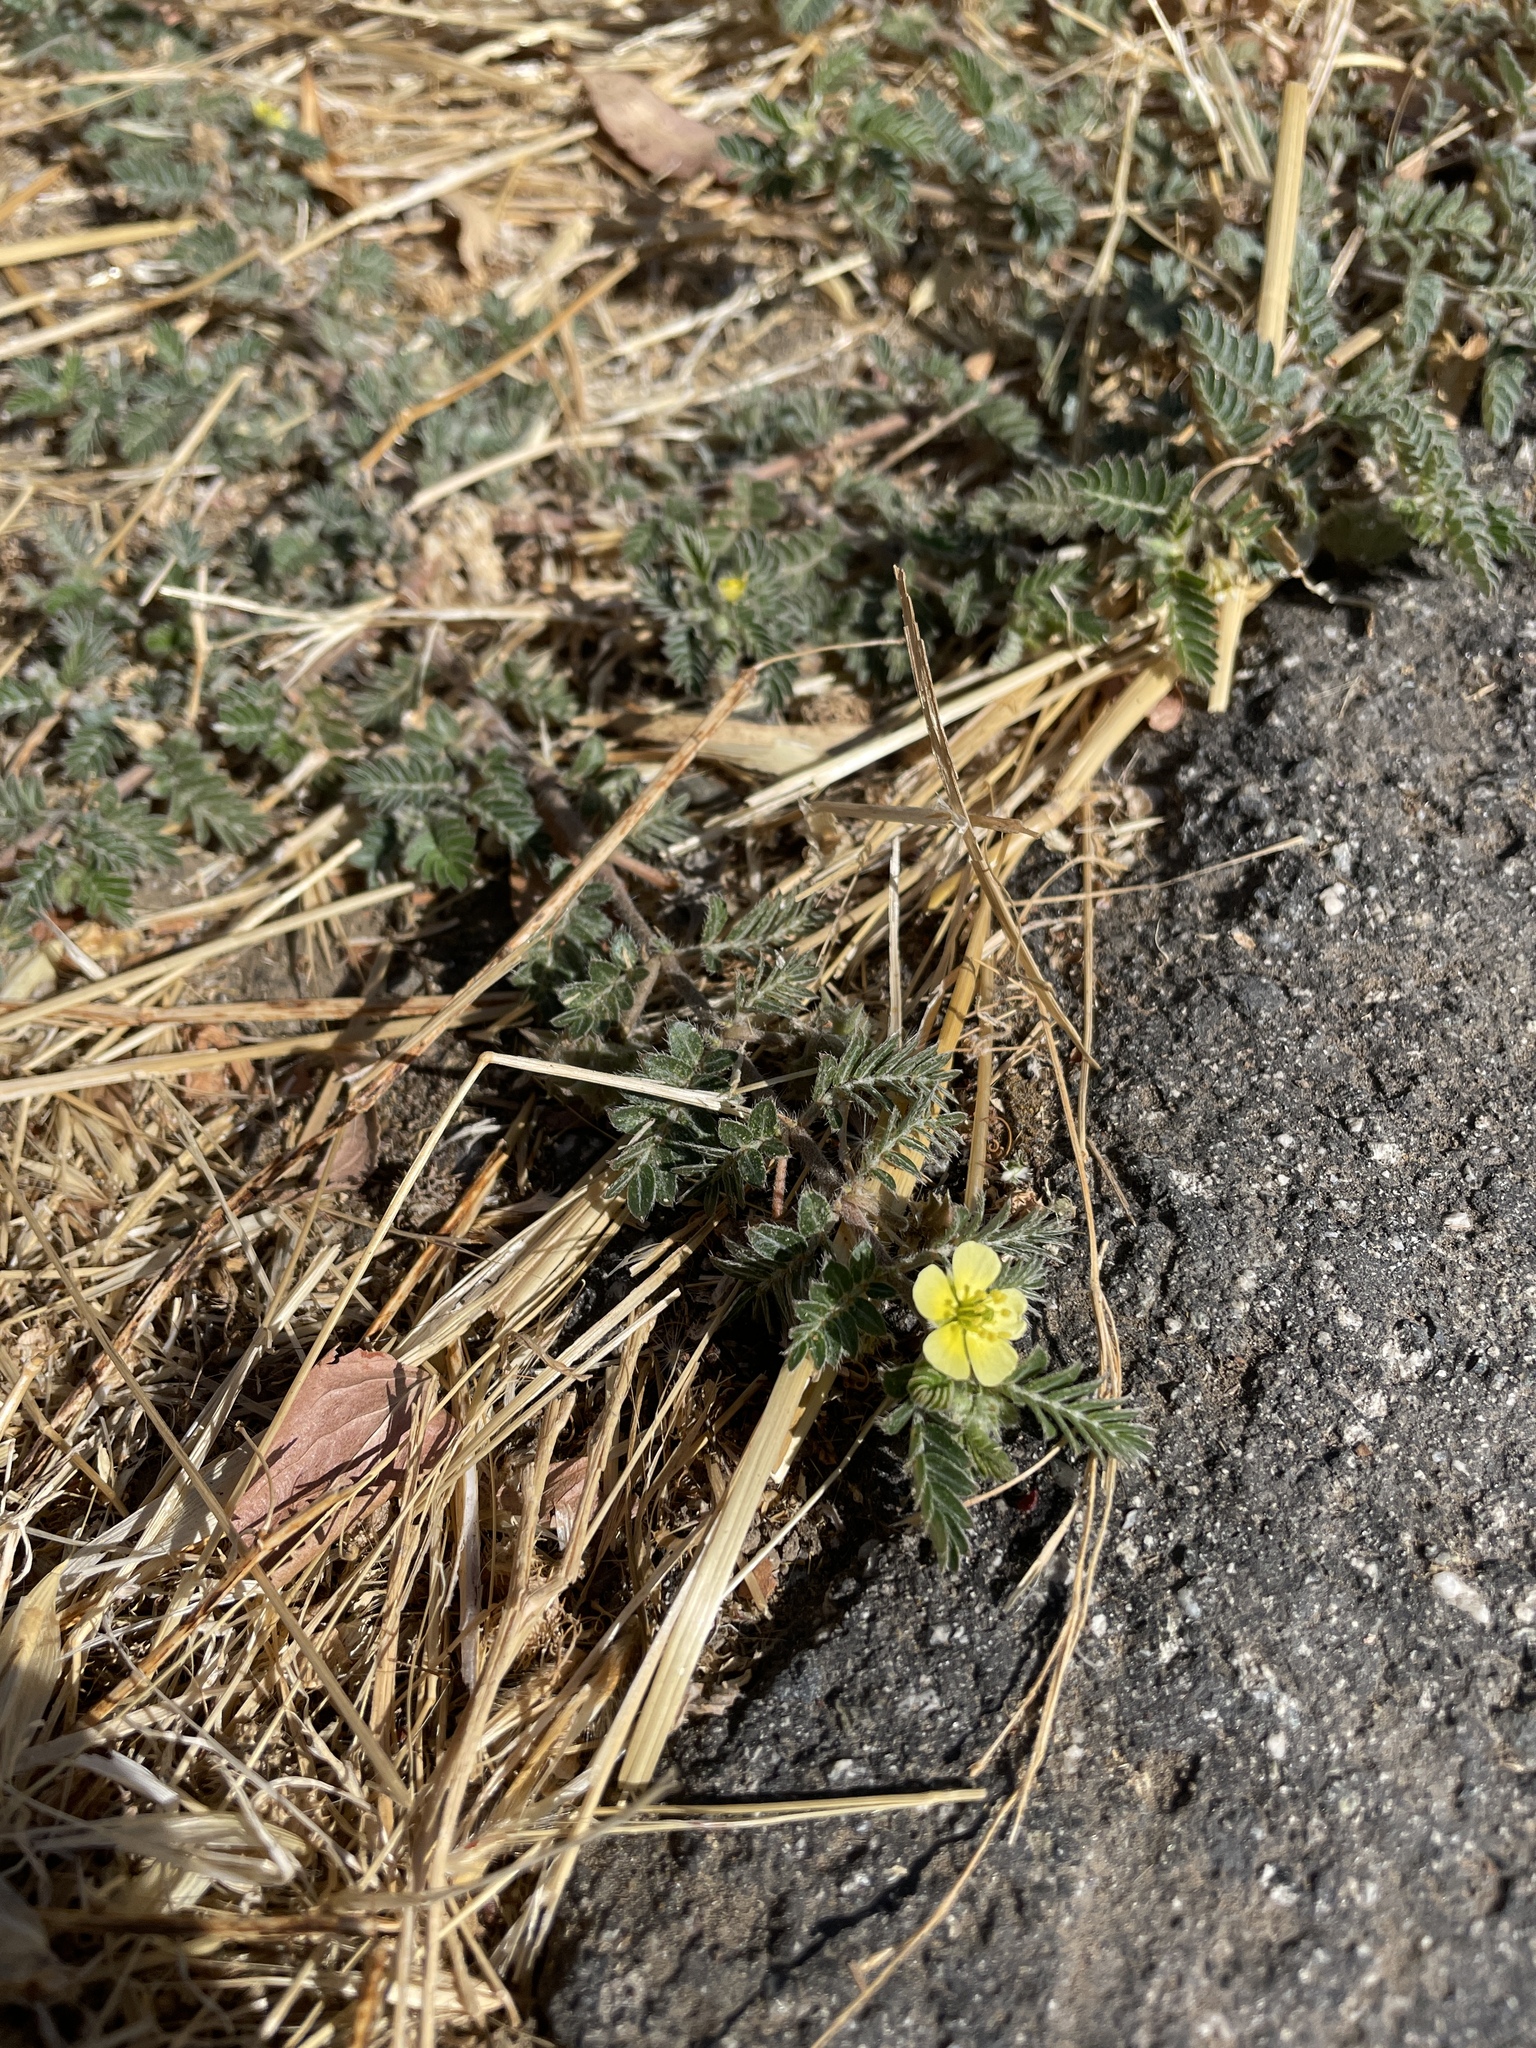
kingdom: Plantae
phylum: Tracheophyta
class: Magnoliopsida
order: Zygophyllales
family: Zygophyllaceae
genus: Tribulus
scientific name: Tribulus terrestris
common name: Puncturevine
